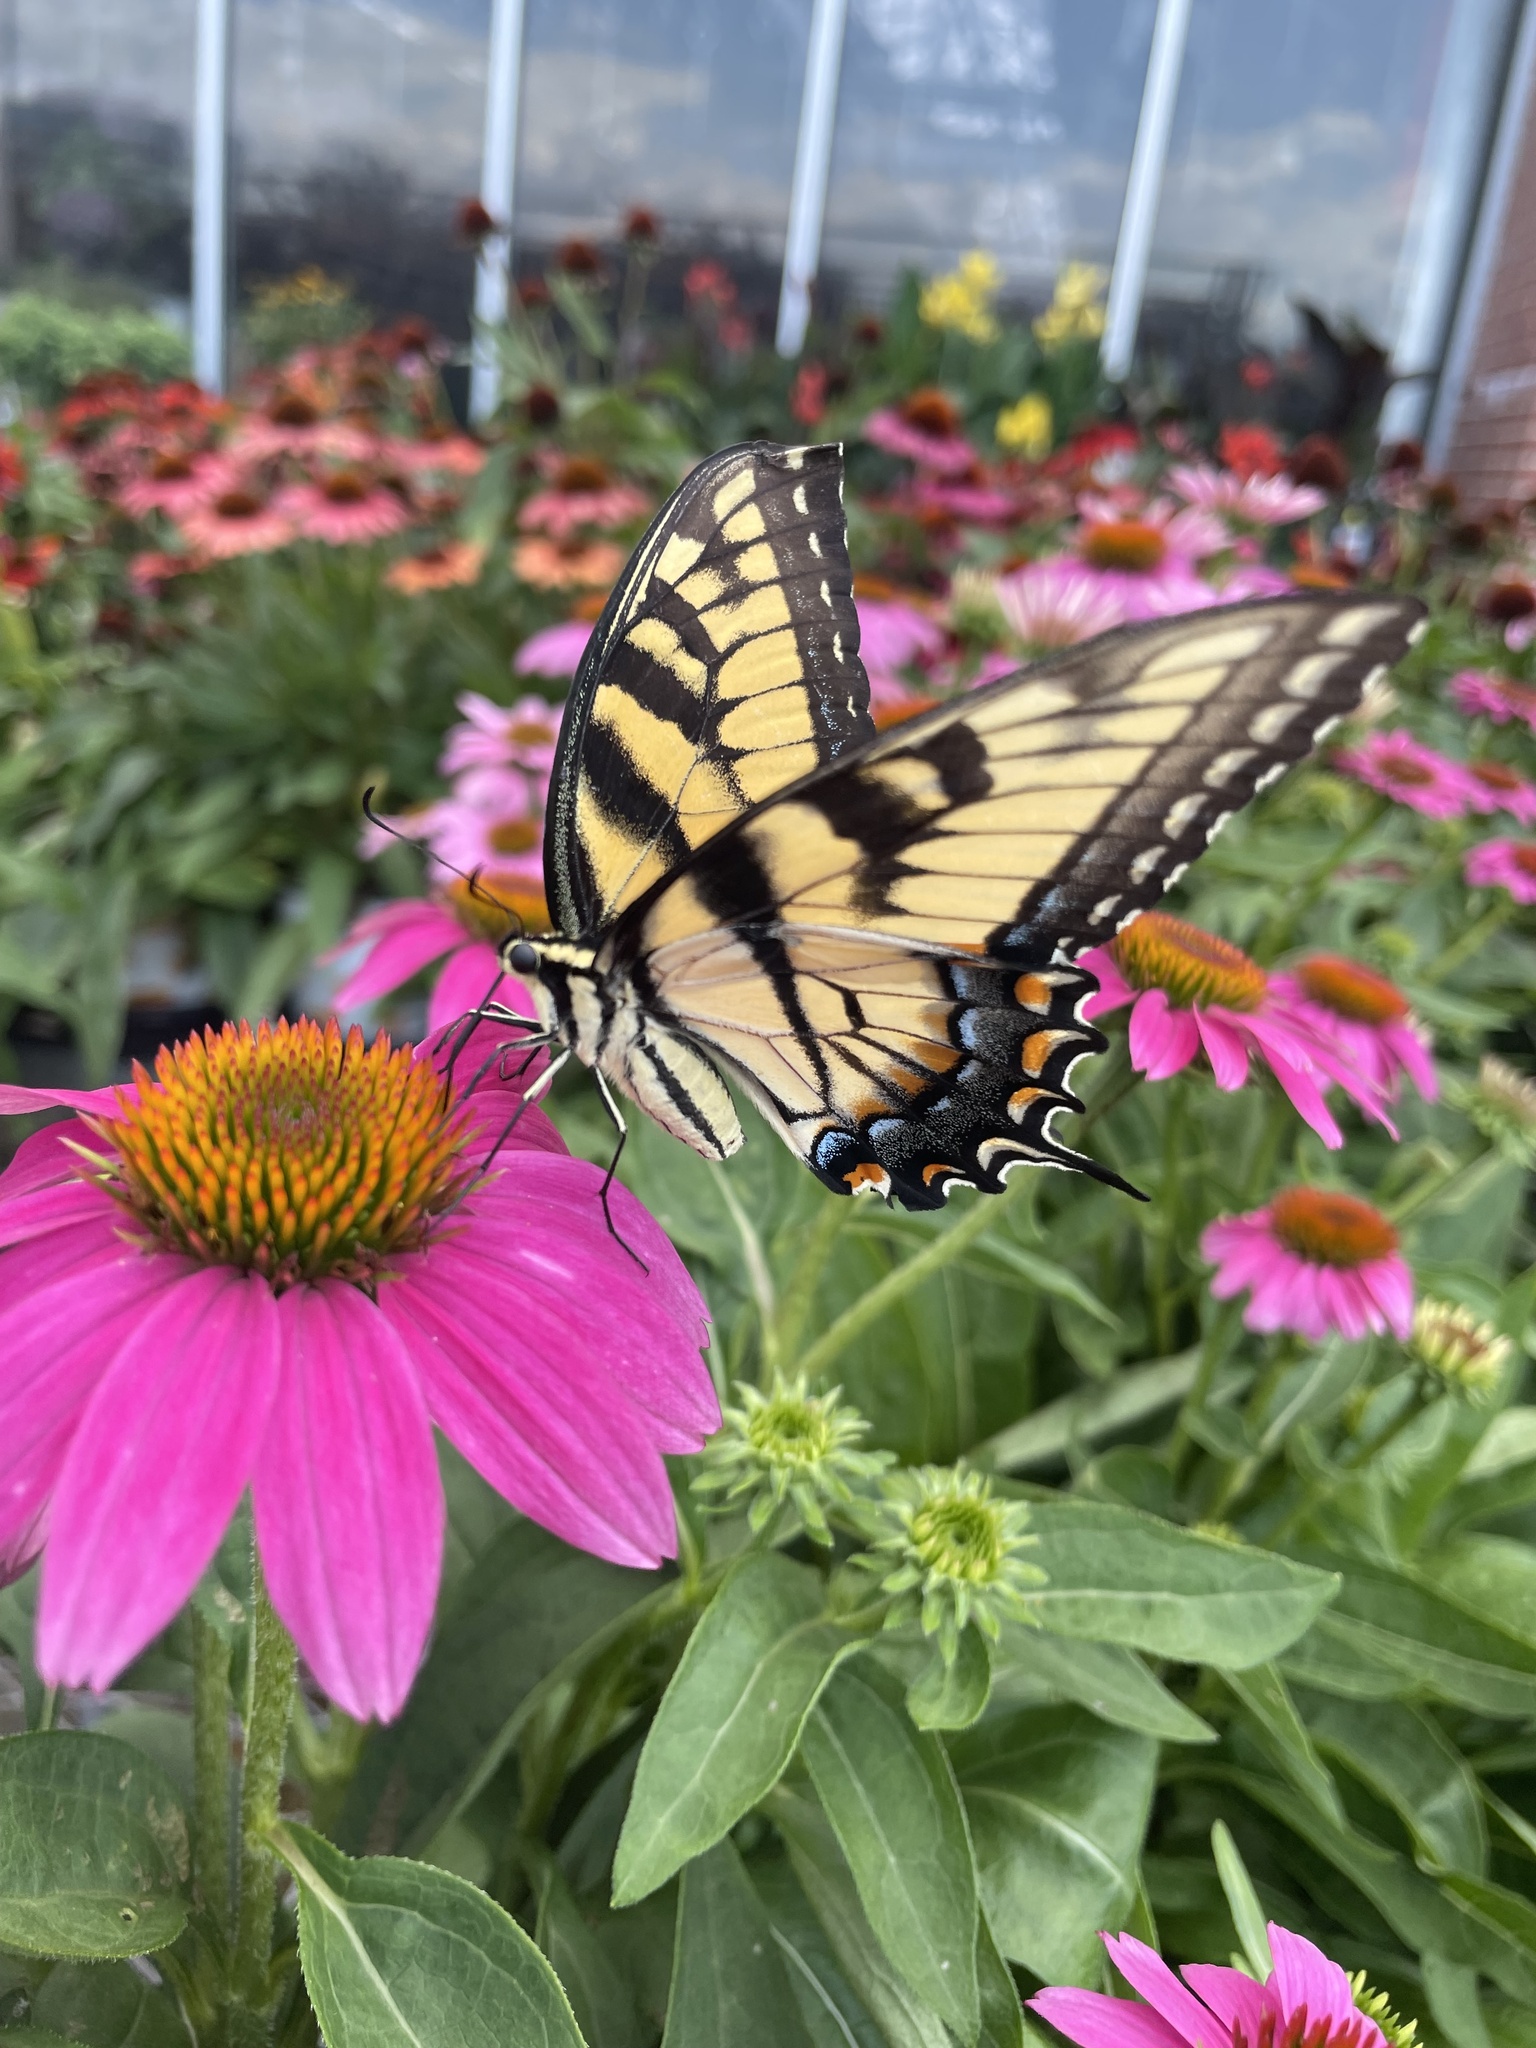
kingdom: Animalia
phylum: Arthropoda
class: Insecta
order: Lepidoptera
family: Papilionidae
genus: Papilio
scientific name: Papilio glaucus
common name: Tiger swallowtail
